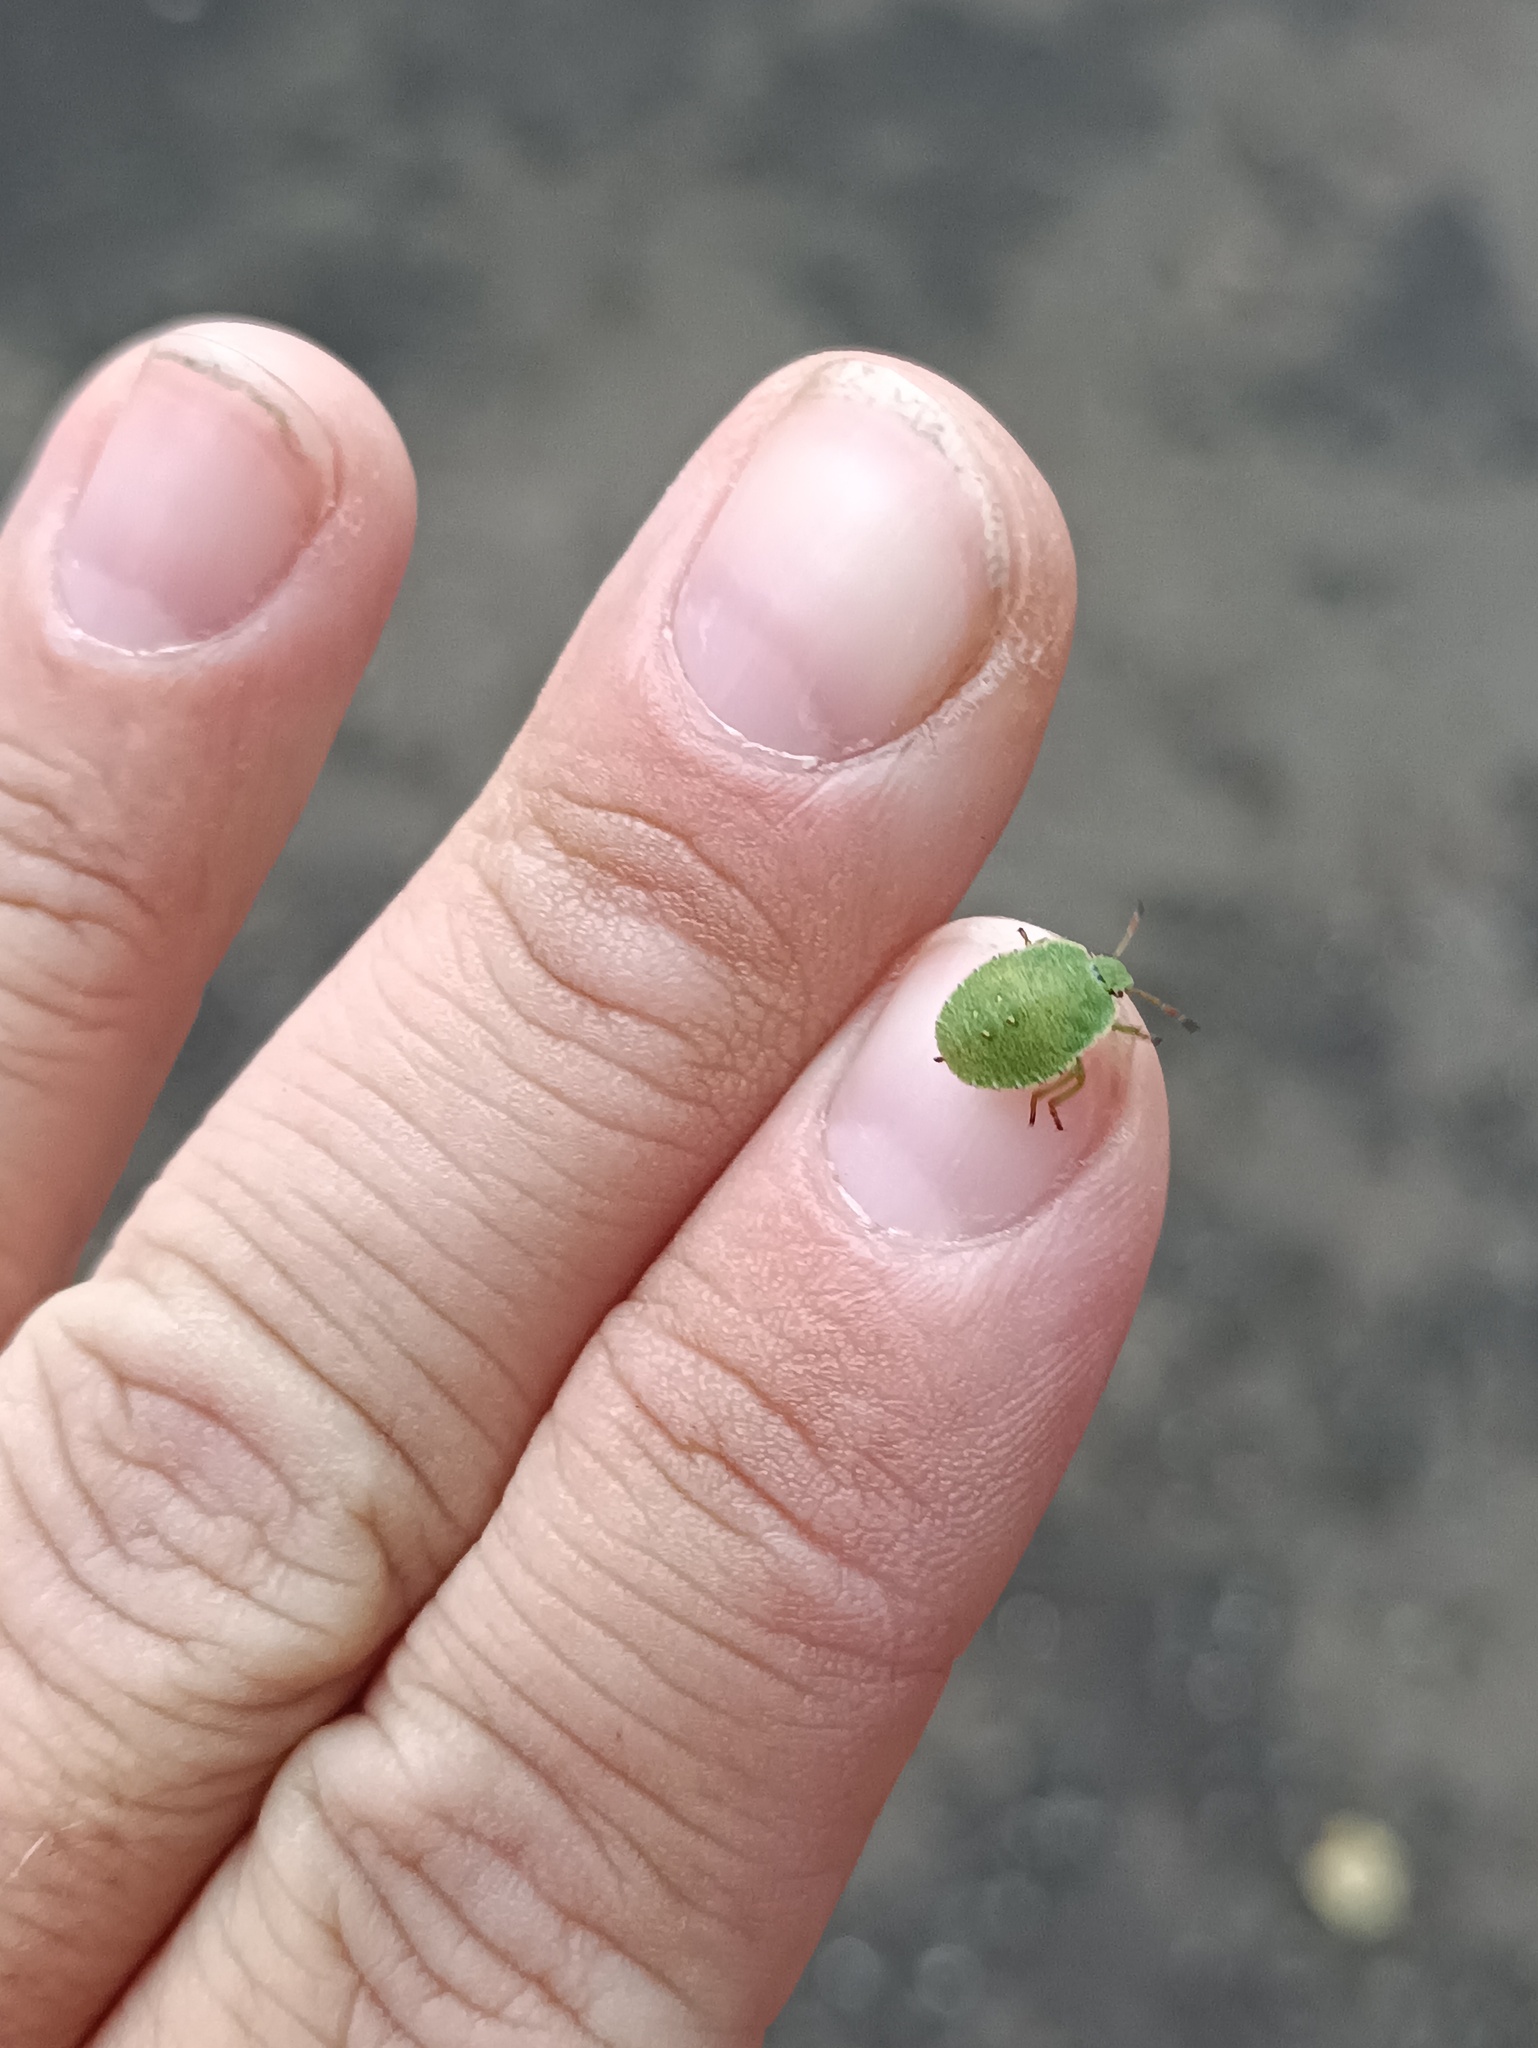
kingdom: Animalia
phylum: Arthropoda
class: Insecta
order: Hemiptera
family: Pentatomidae
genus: Palomena
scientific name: Palomena prasina
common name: Green shieldbug
